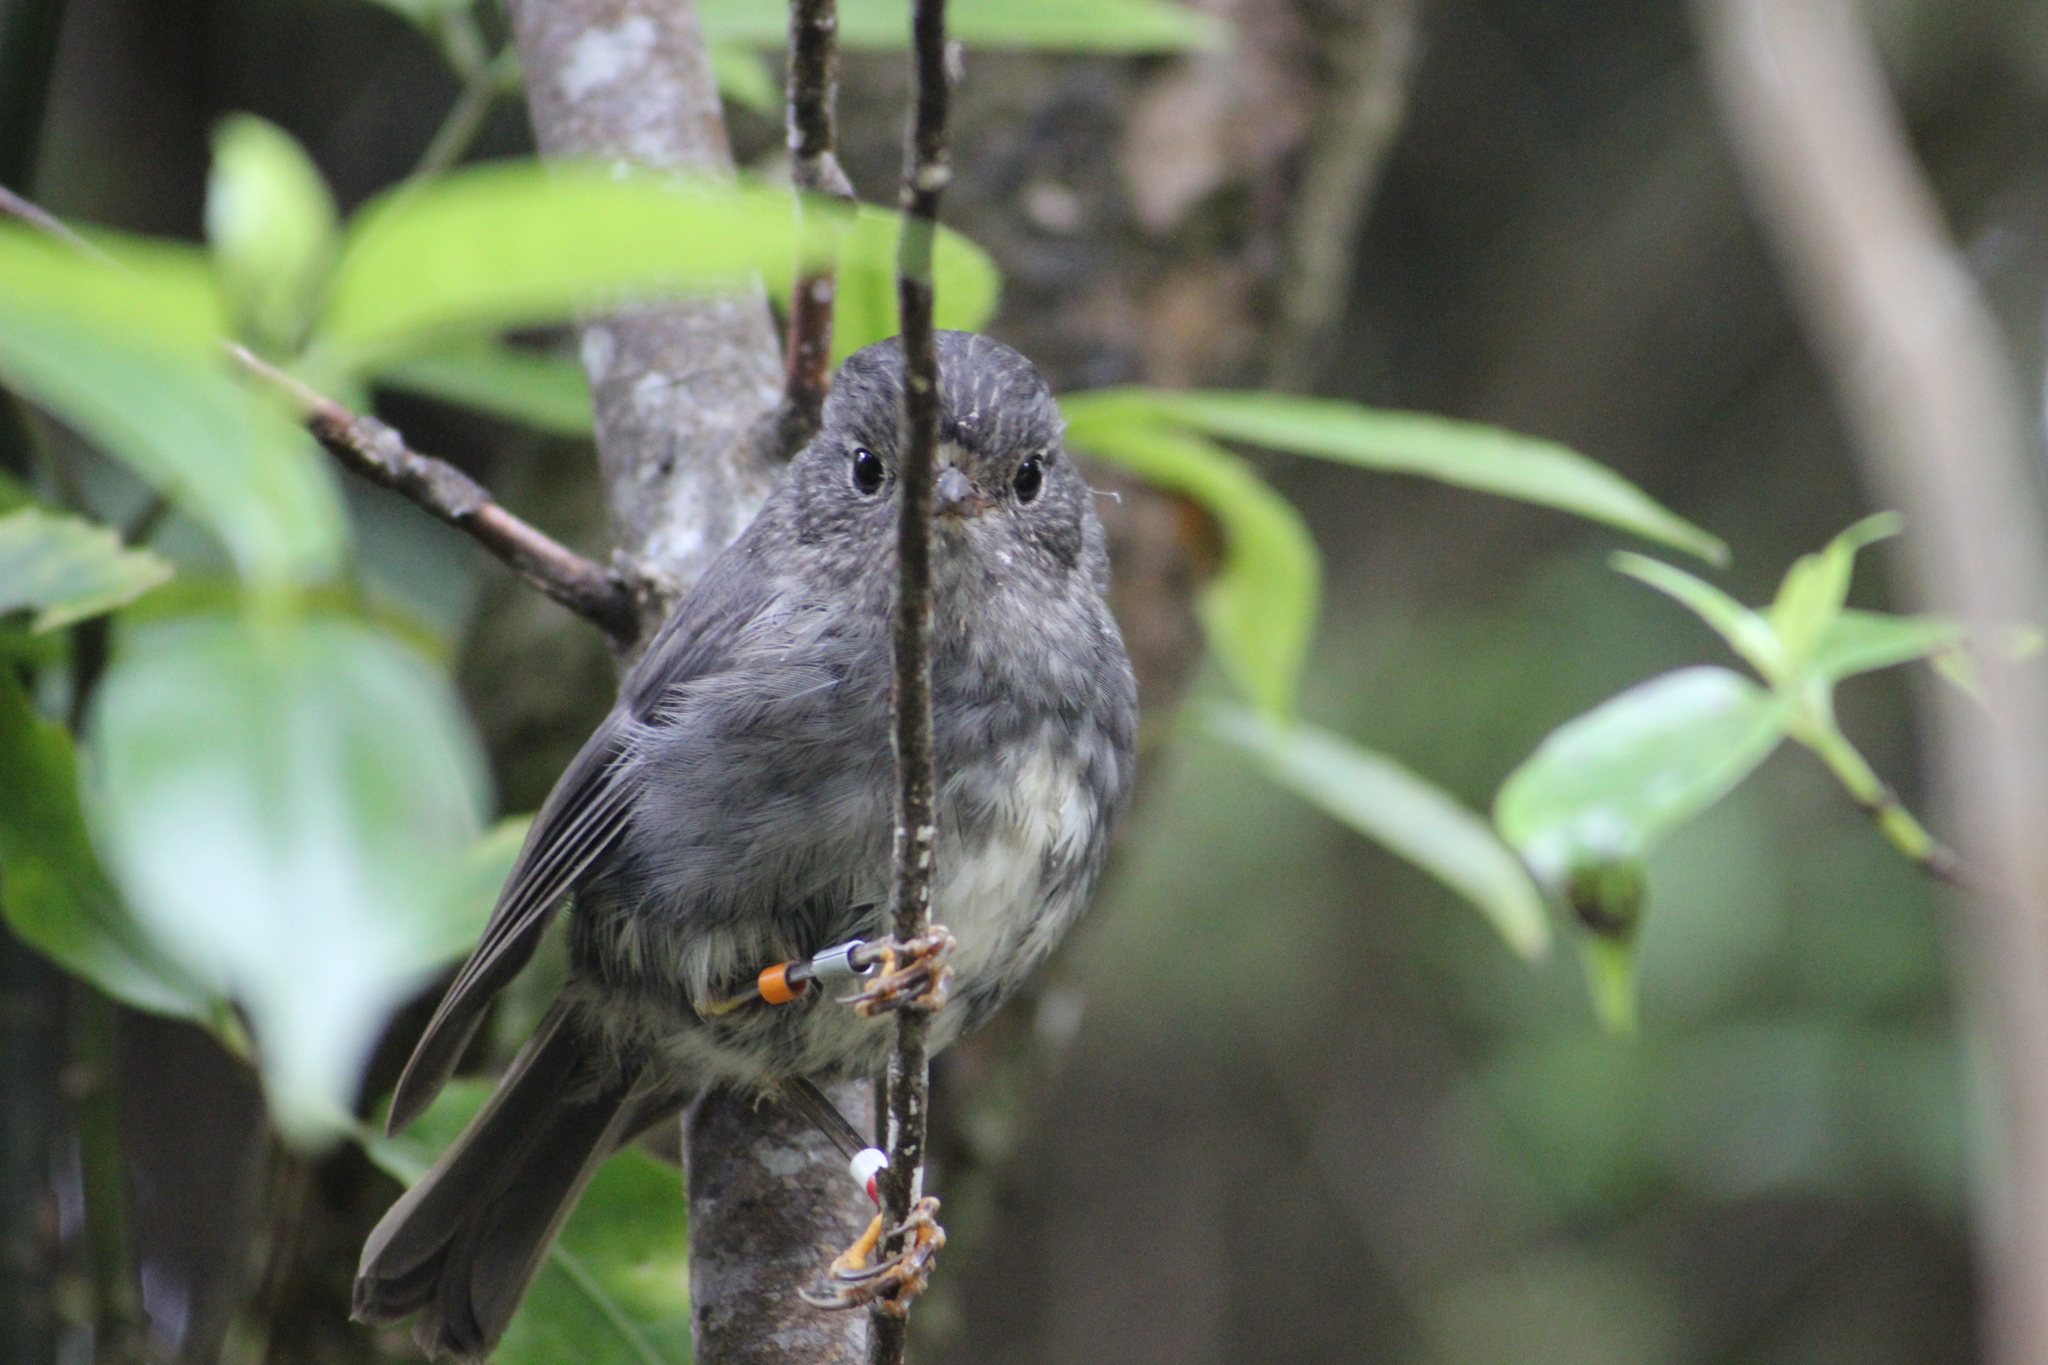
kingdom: Animalia
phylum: Chordata
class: Aves
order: Passeriformes
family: Petroicidae
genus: Petroica
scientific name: Petroica australis
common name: New zealand robin
